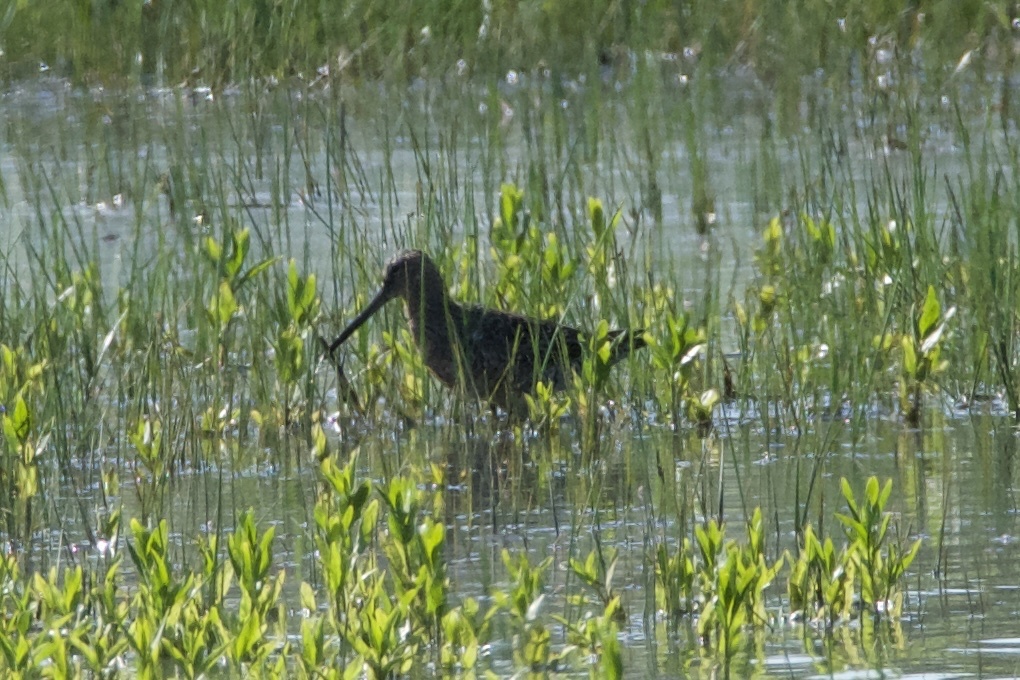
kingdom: Animalia
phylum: Chordata
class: Aves
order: Charadriiformes
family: Scolopacidae
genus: Limnodromus
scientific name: Limnodromus scolopaceus
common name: Long-billed dowitcher
